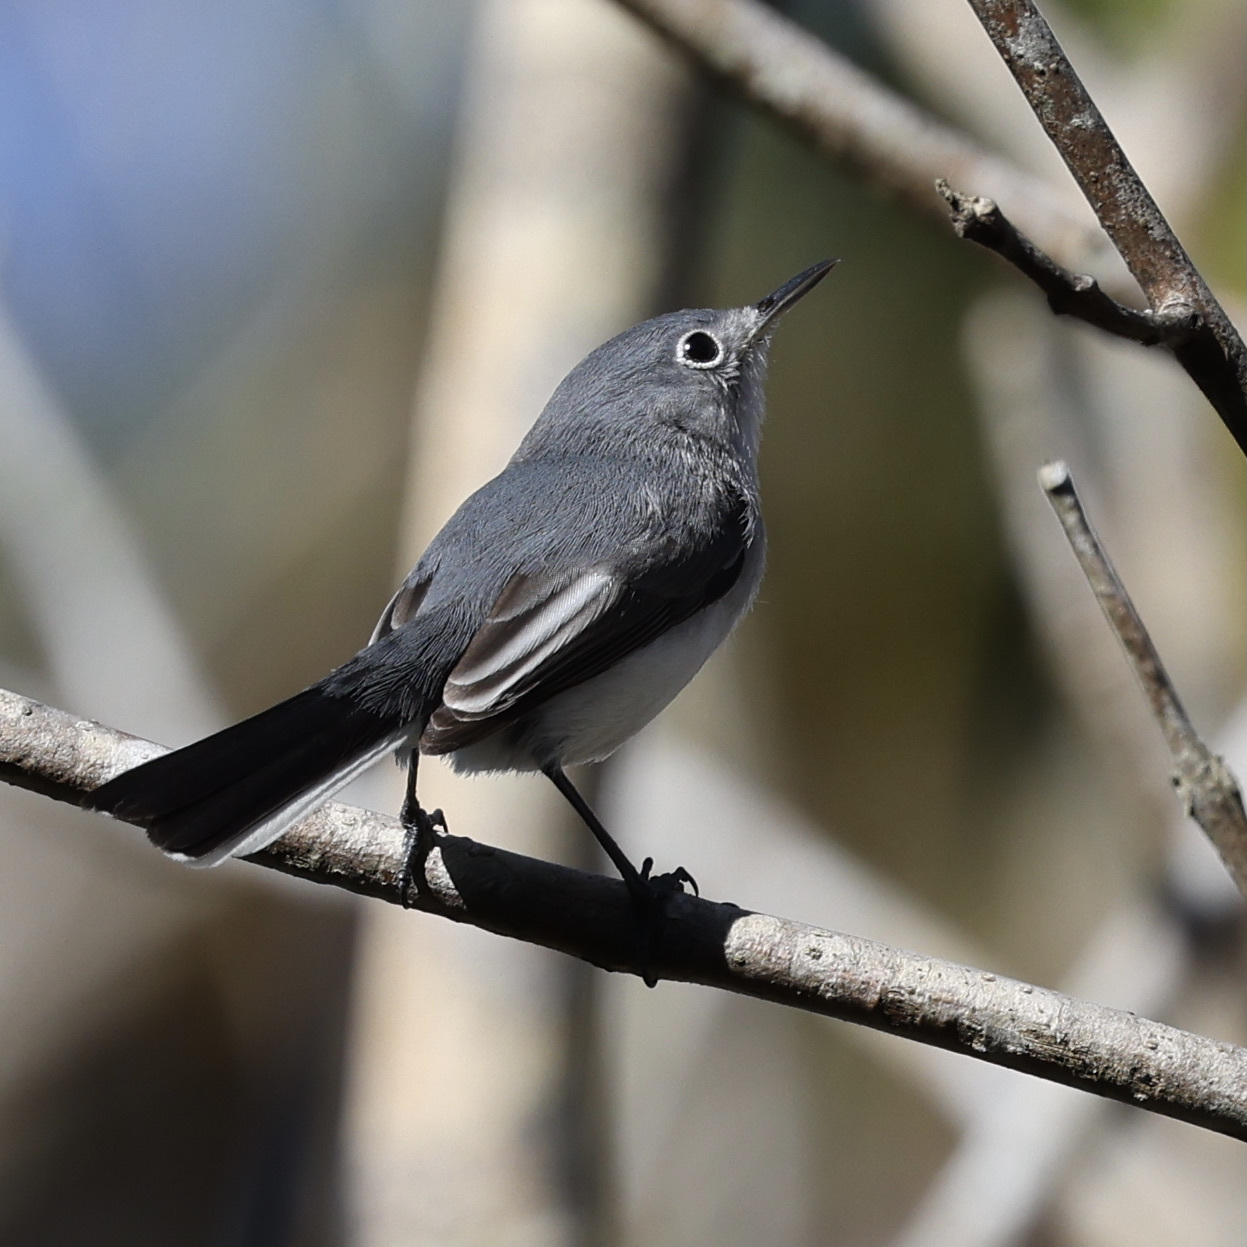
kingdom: Animalia
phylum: Chordata
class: Aves
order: Passeriformes
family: Polioptilidae
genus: Polioptila
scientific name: Polioptila caerulea
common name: Blue-gray gnatcatcher
